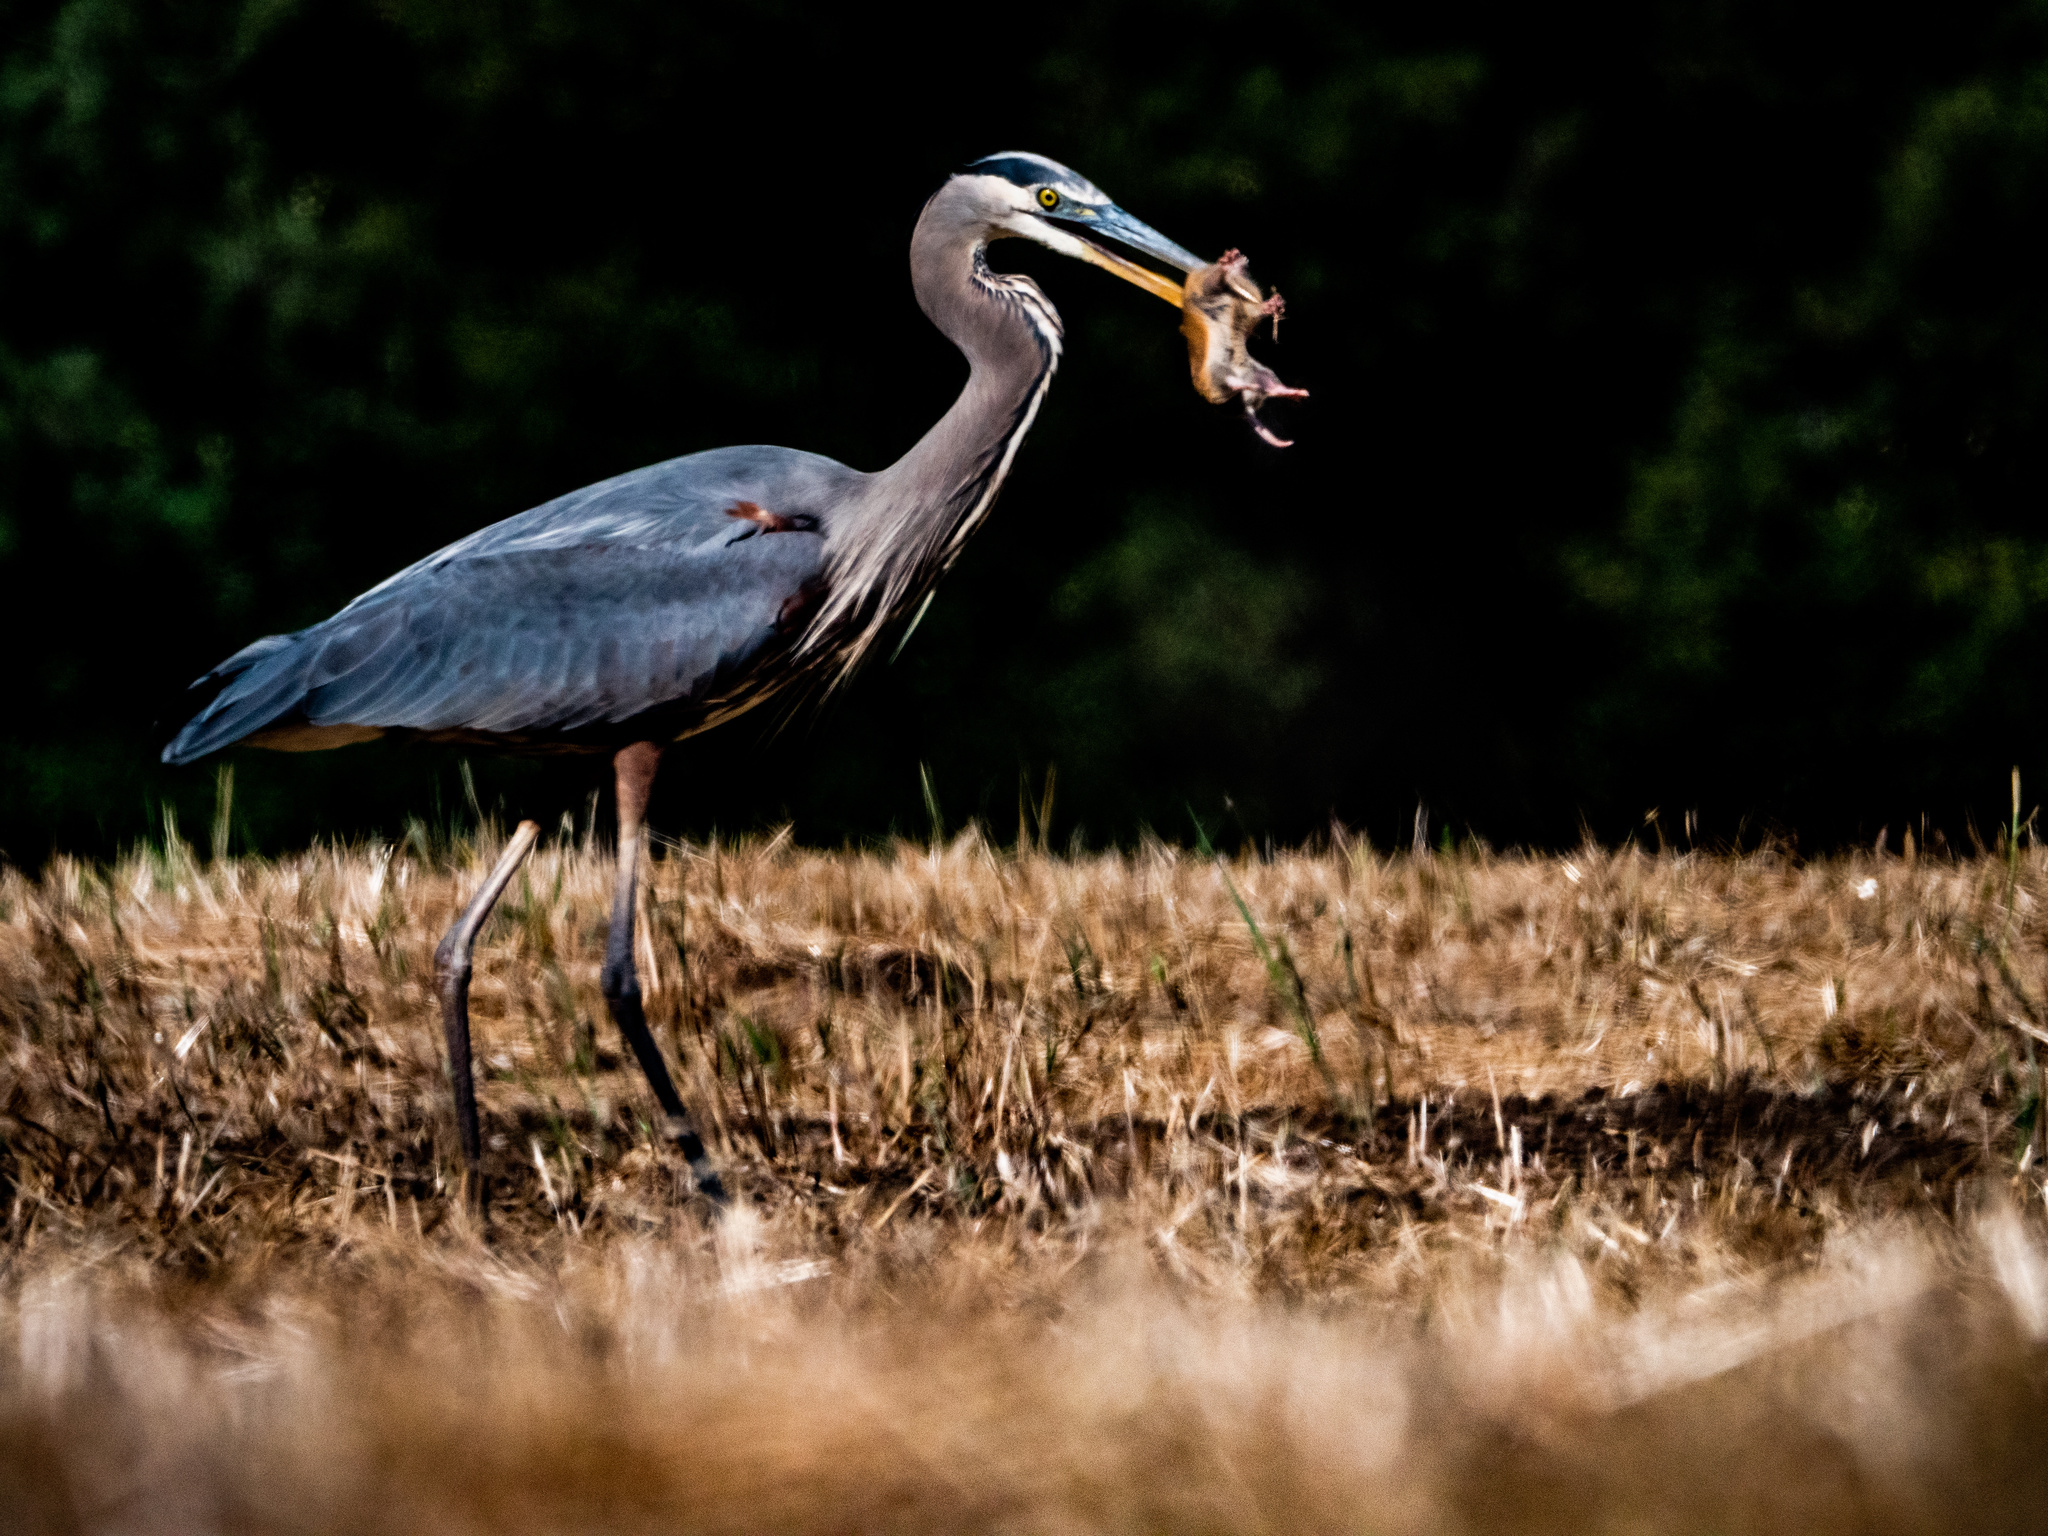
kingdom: Animalia
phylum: Chordata
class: Aves
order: Pelecaniformes
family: Ardeidae
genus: Ardea
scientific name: Ardea herodias
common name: Great blue heron
